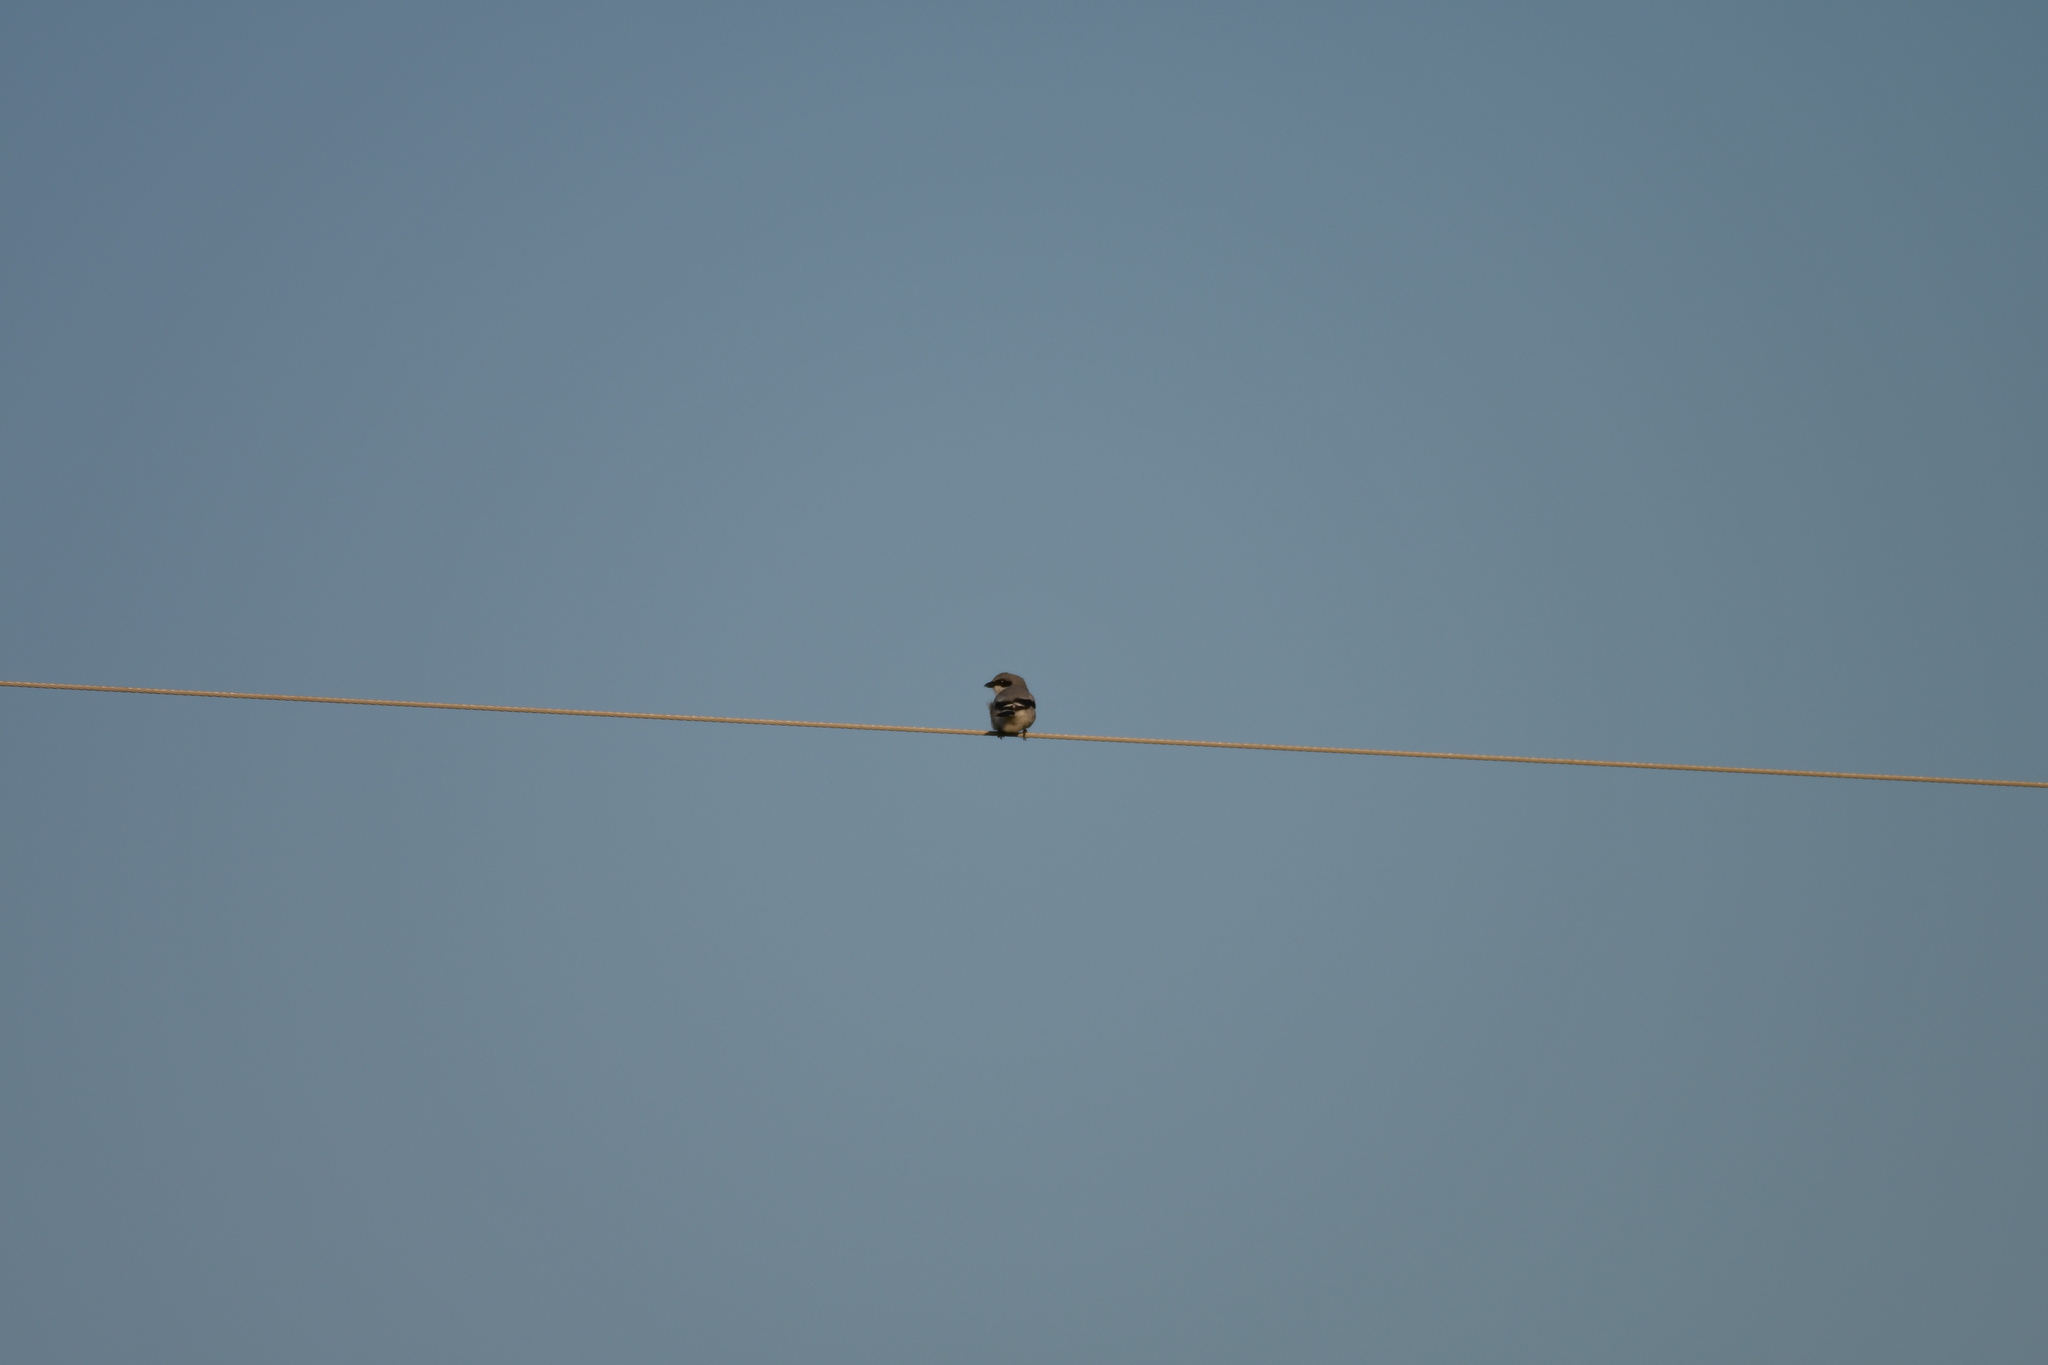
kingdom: Animalia
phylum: Chordata
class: Aves
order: Passeriformes
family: Laniidae
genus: Lanius
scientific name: Lanius ludovicianus
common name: Loggerhead shrike
